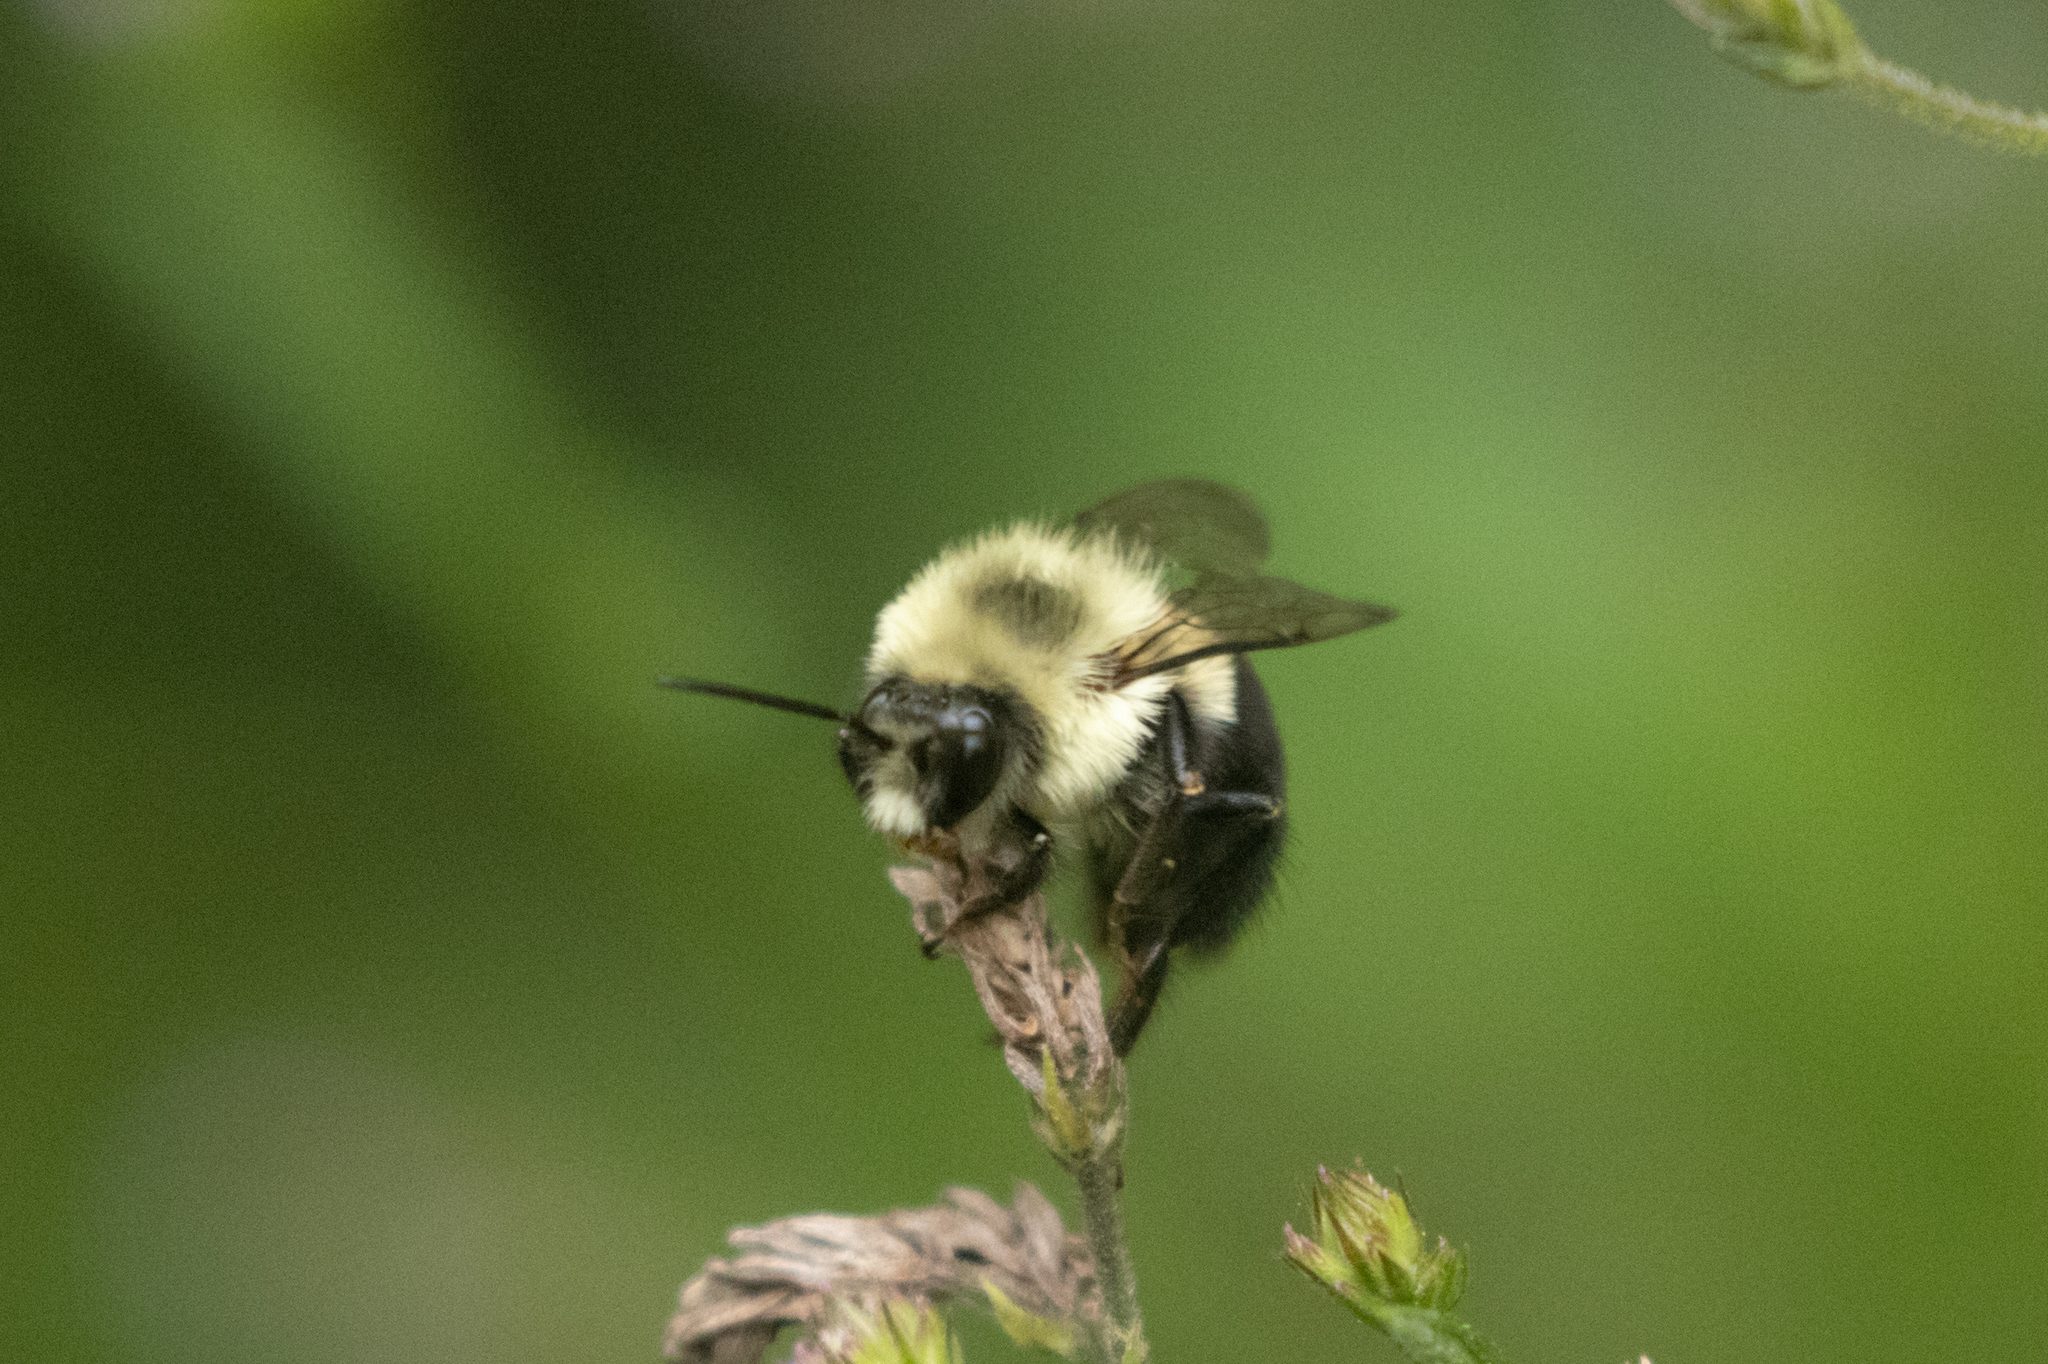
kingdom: Animalia
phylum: Arthropoda
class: Insecta
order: Hymenoptera
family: Apidae
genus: Bombus
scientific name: Bombus impatiens
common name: Common eastern bumble bee
